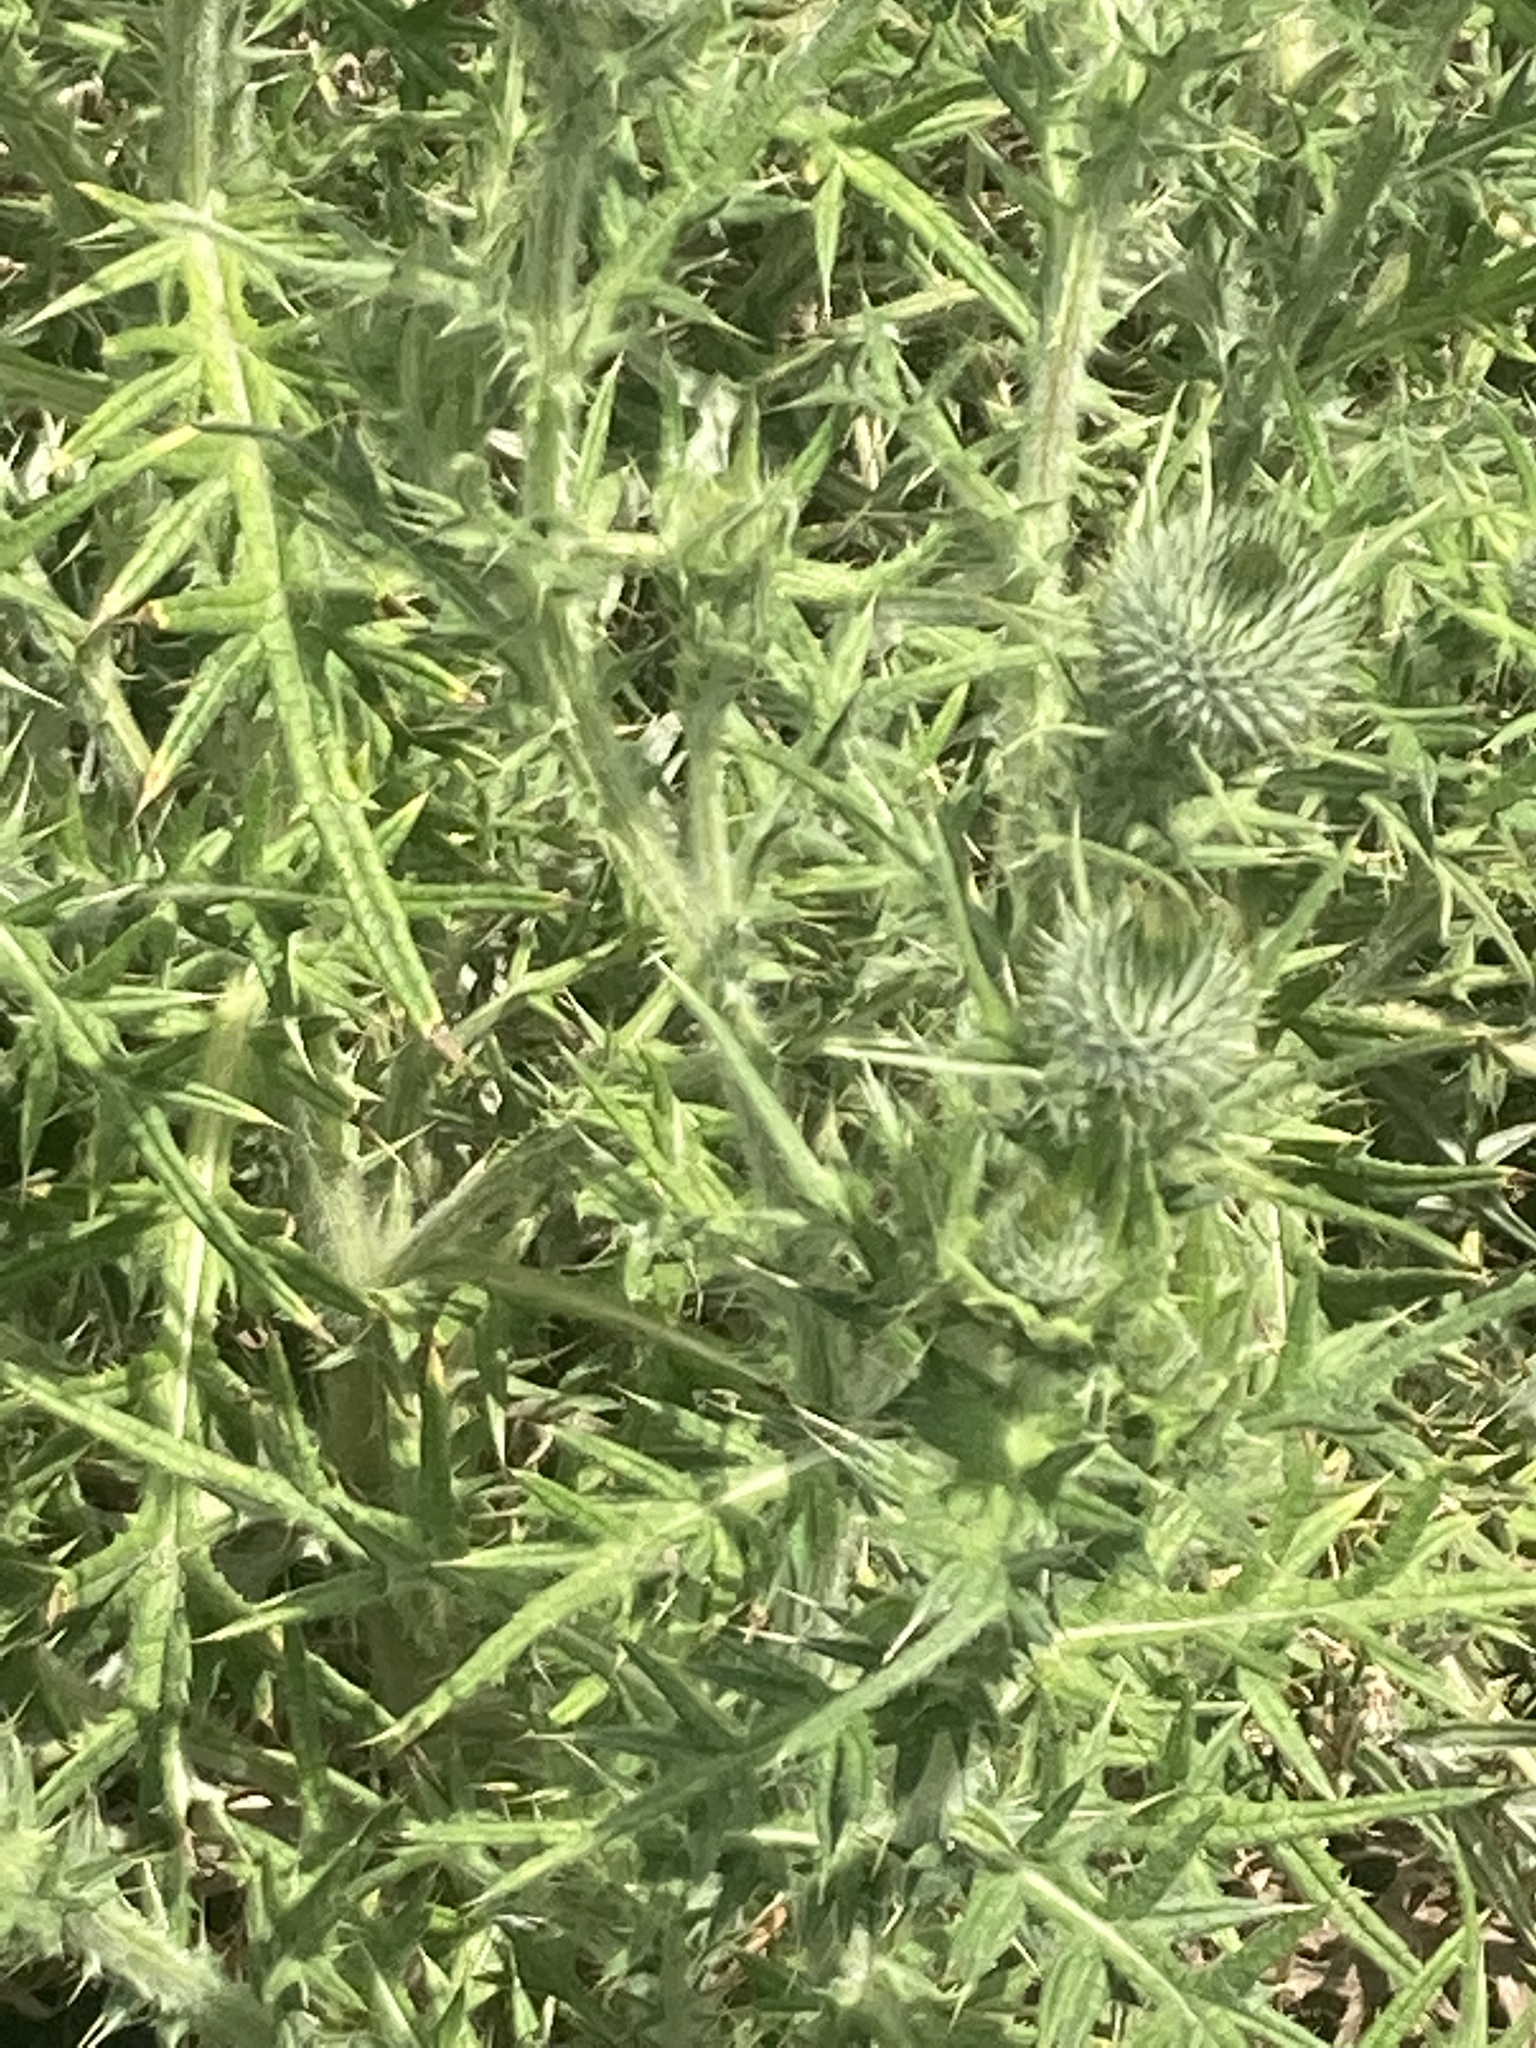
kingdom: Plantae
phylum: Tracheophyta
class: Magnoliopsida
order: Asterales
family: Asteraceae
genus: Cirsium
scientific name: Cirsium vulgare
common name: Bull thistle
